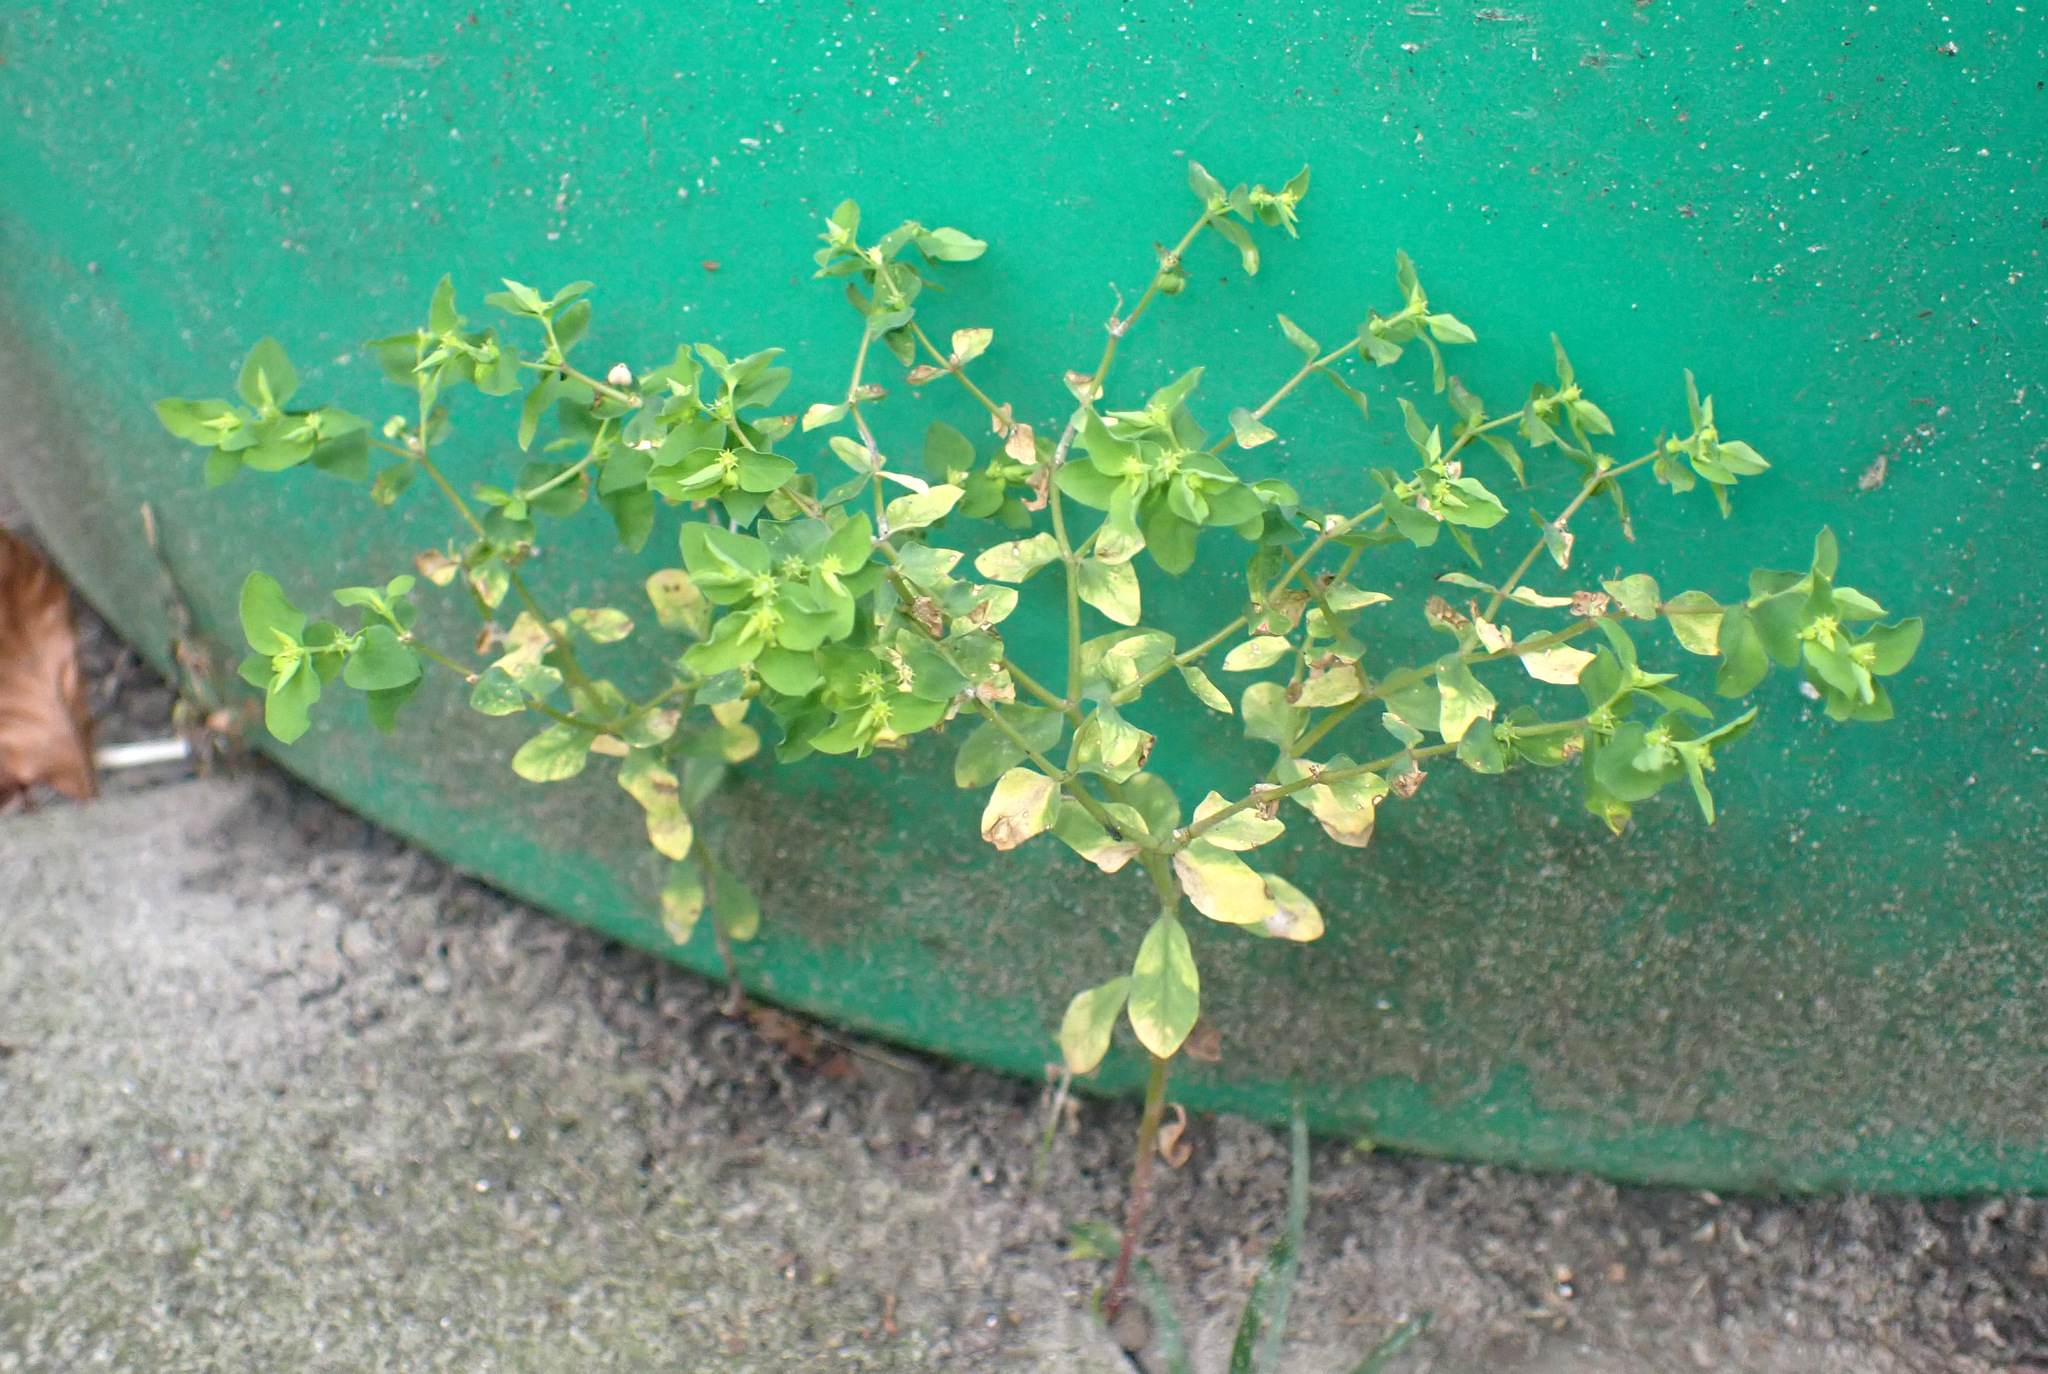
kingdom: Plantae
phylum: Tracheophyta
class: Magnoliopsida
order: Malpighiales
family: Euphorbiaceae
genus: Euphorbia
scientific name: Euphorbia peplus
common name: Petty spurge
